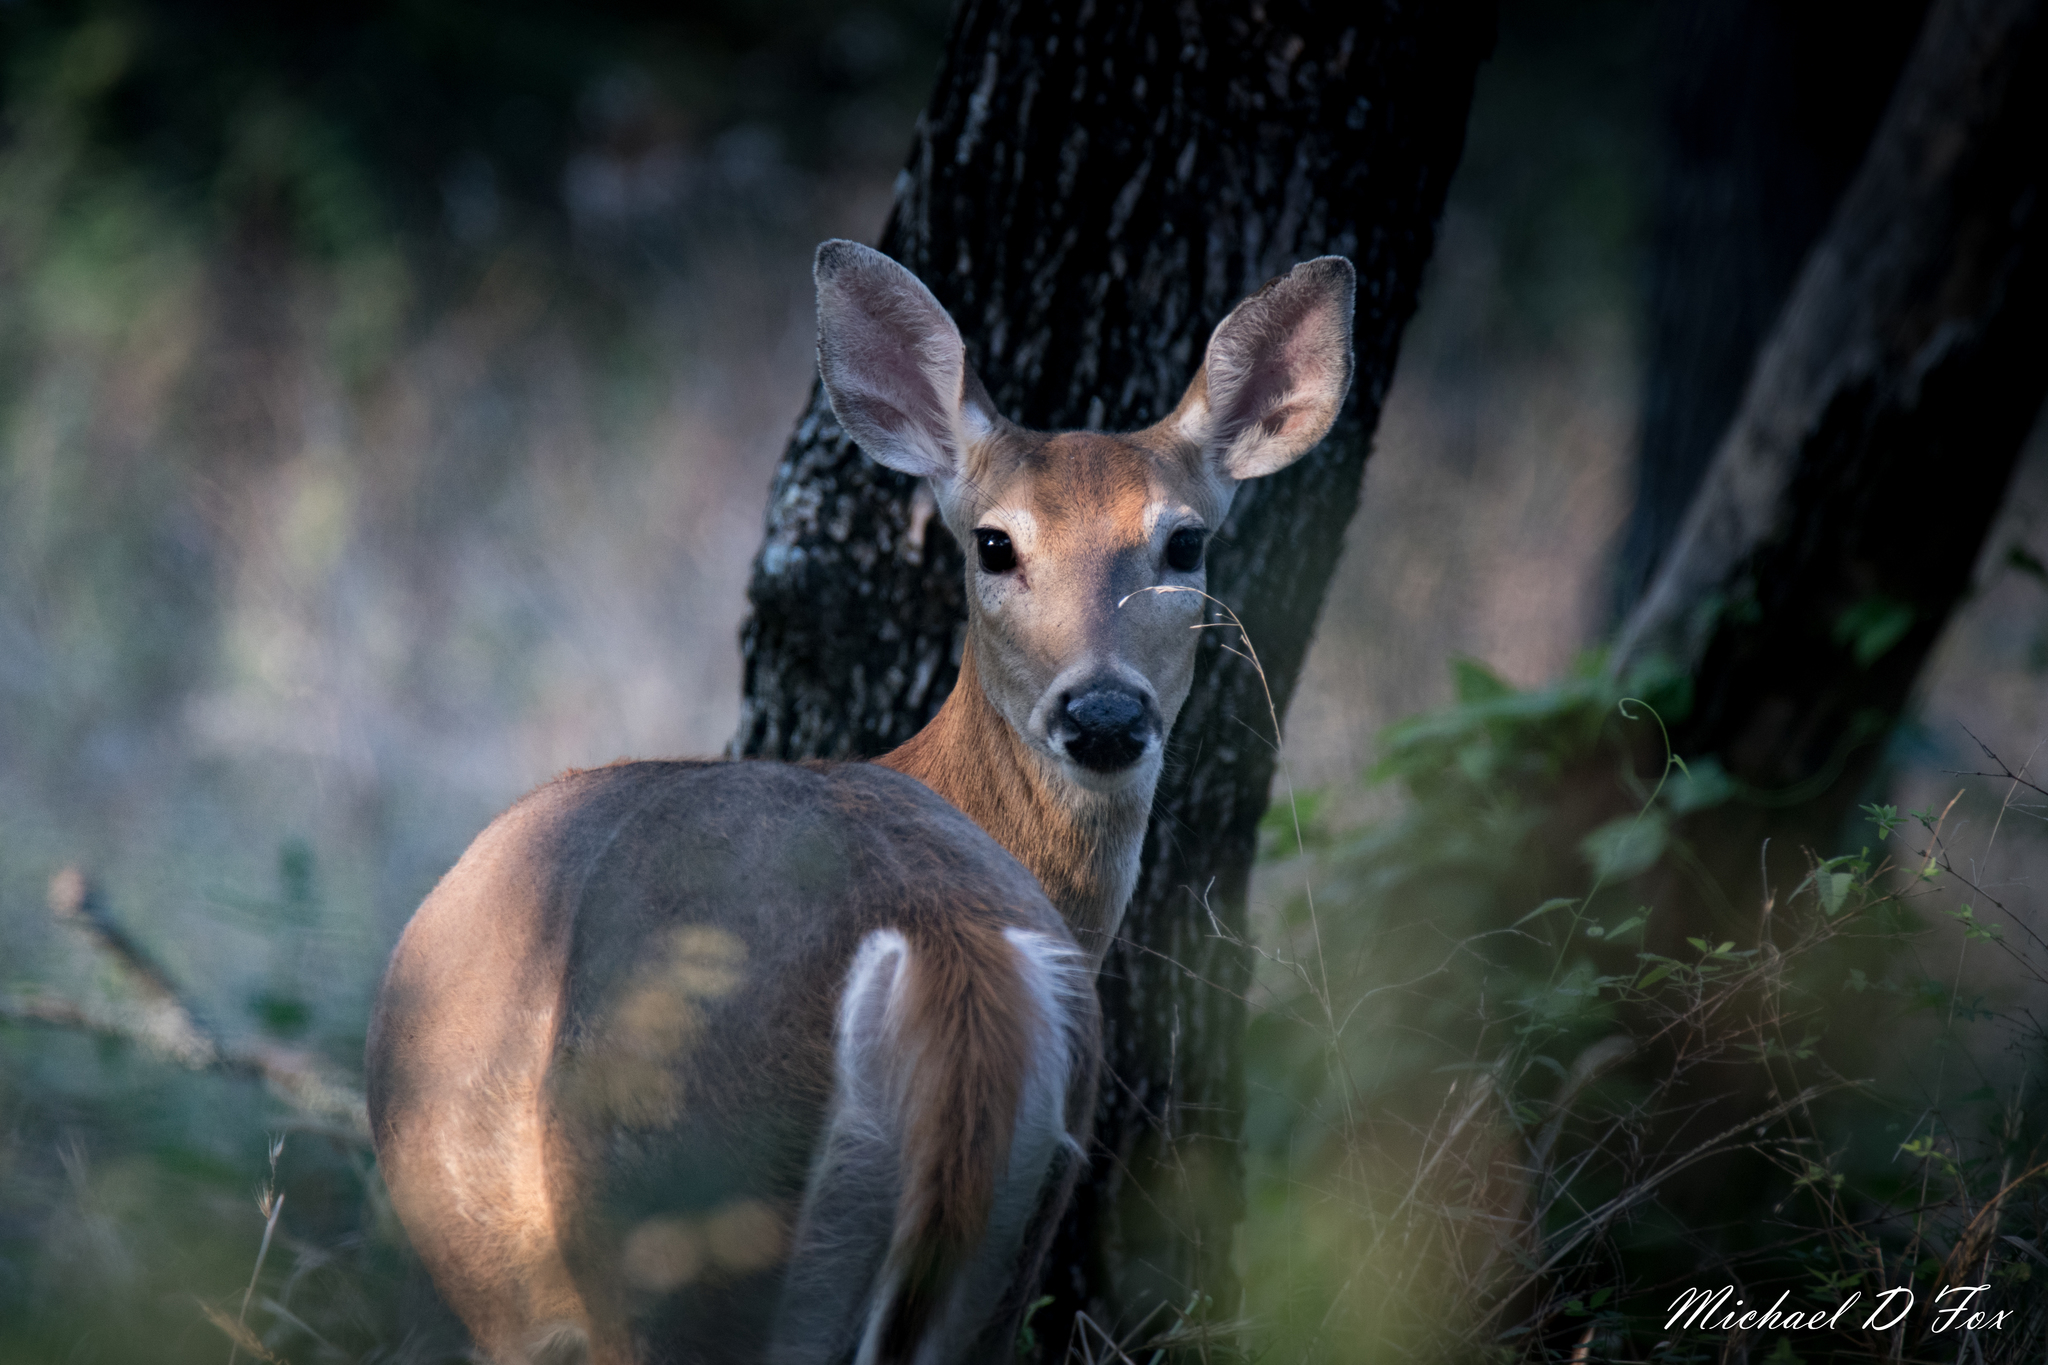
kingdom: Animalia
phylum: Chordata
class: Mammalia
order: Artiodactyla
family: Cervidae
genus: Odocoileus
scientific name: Odocoileus virginianus
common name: White-tailed deer
